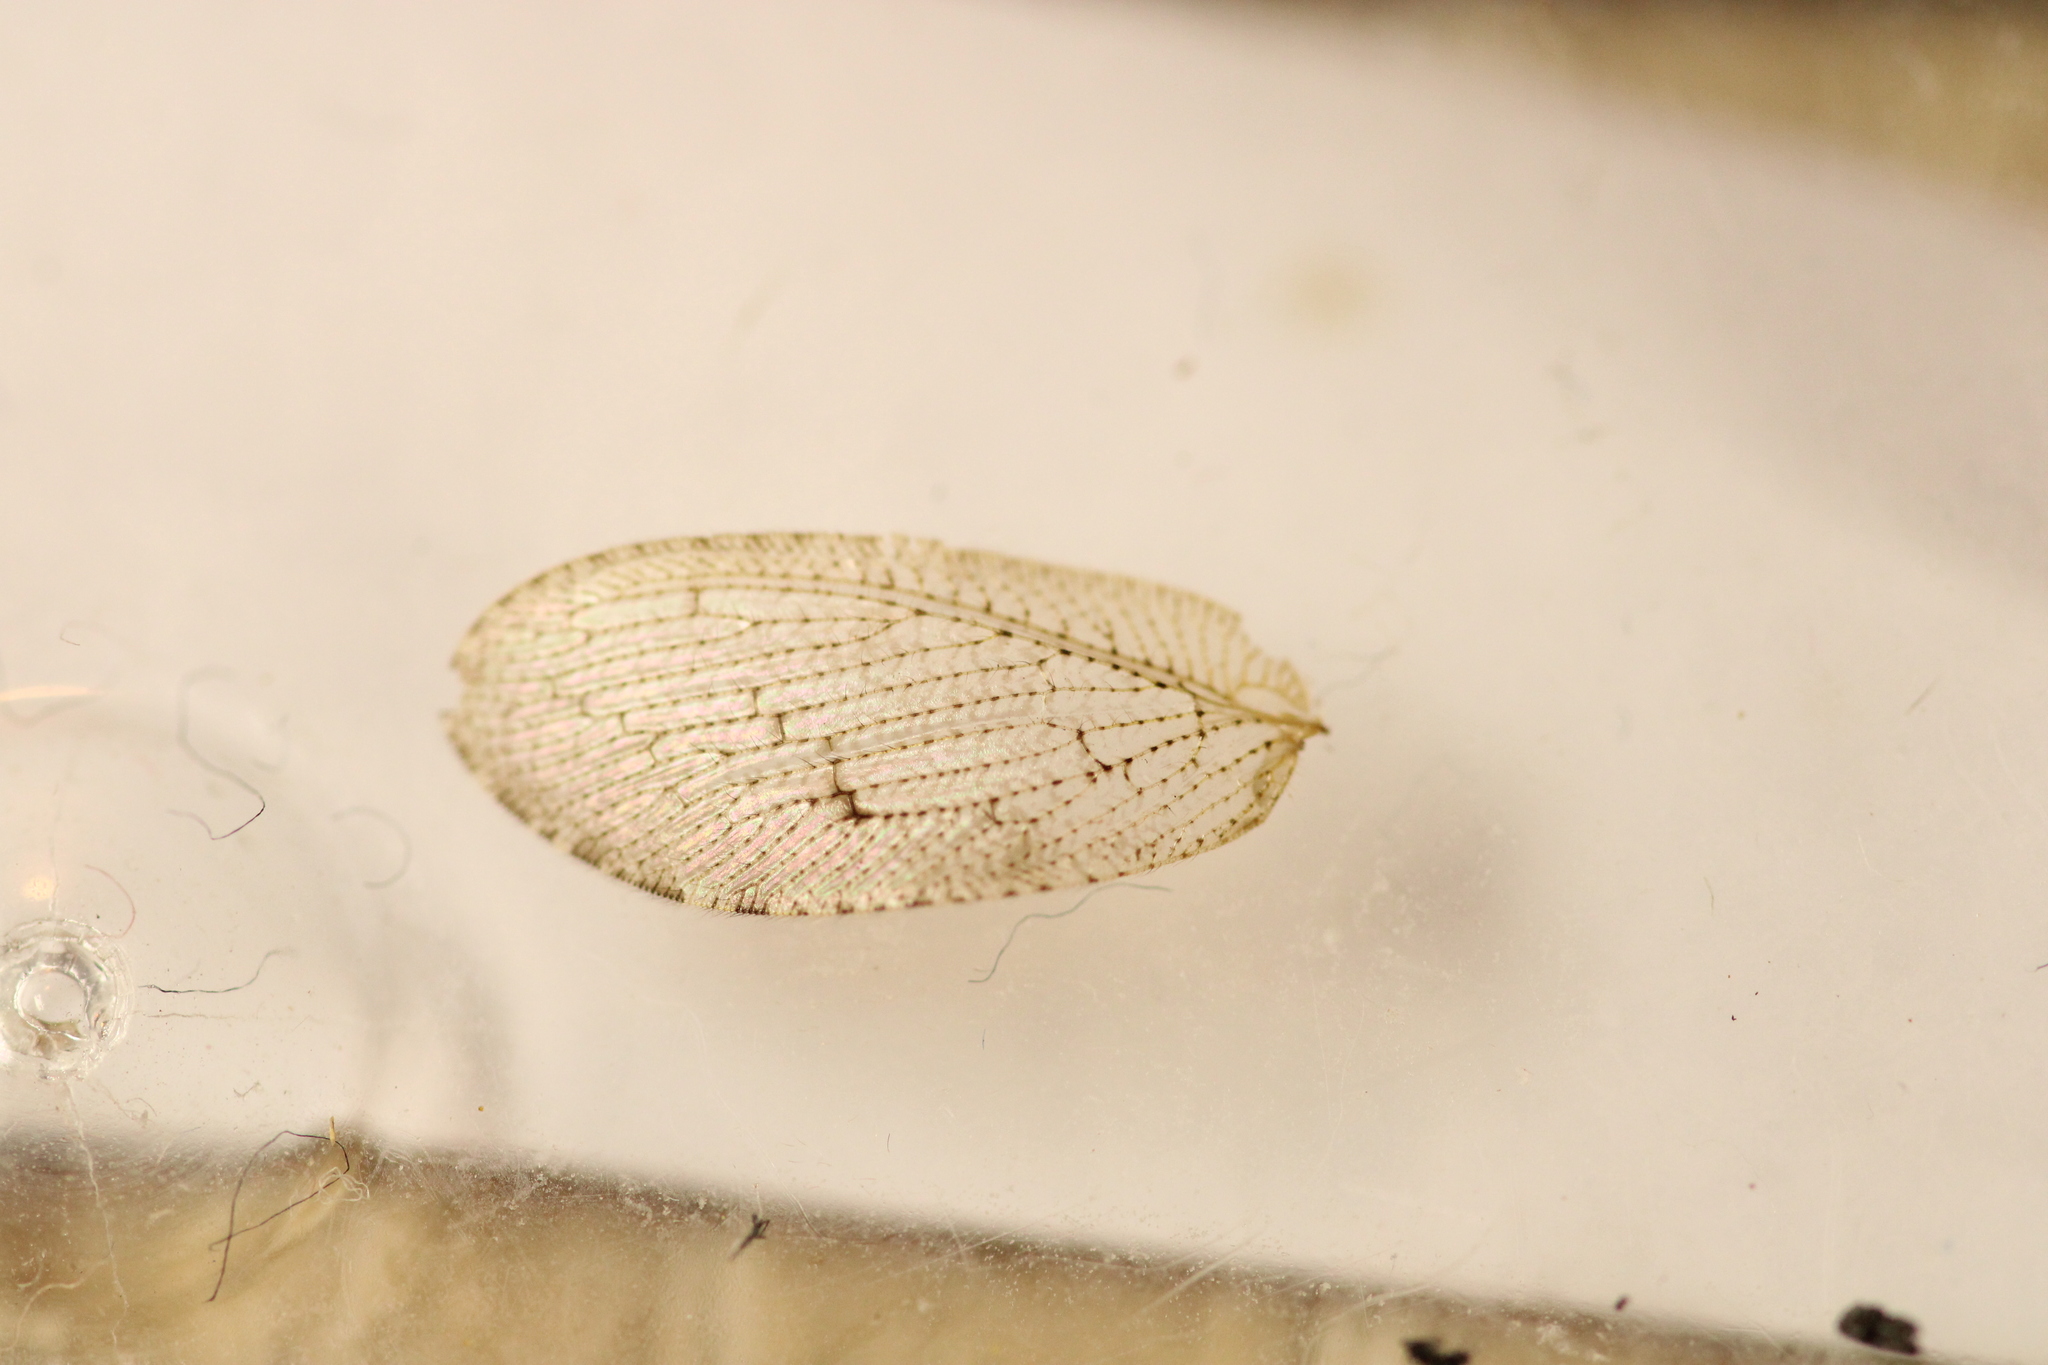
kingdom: Animalia
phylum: Arthropoda
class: Insecta
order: Neuroptera
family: Hemerobiidae
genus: Wesmaelius
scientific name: Wesmaelius concinnus
